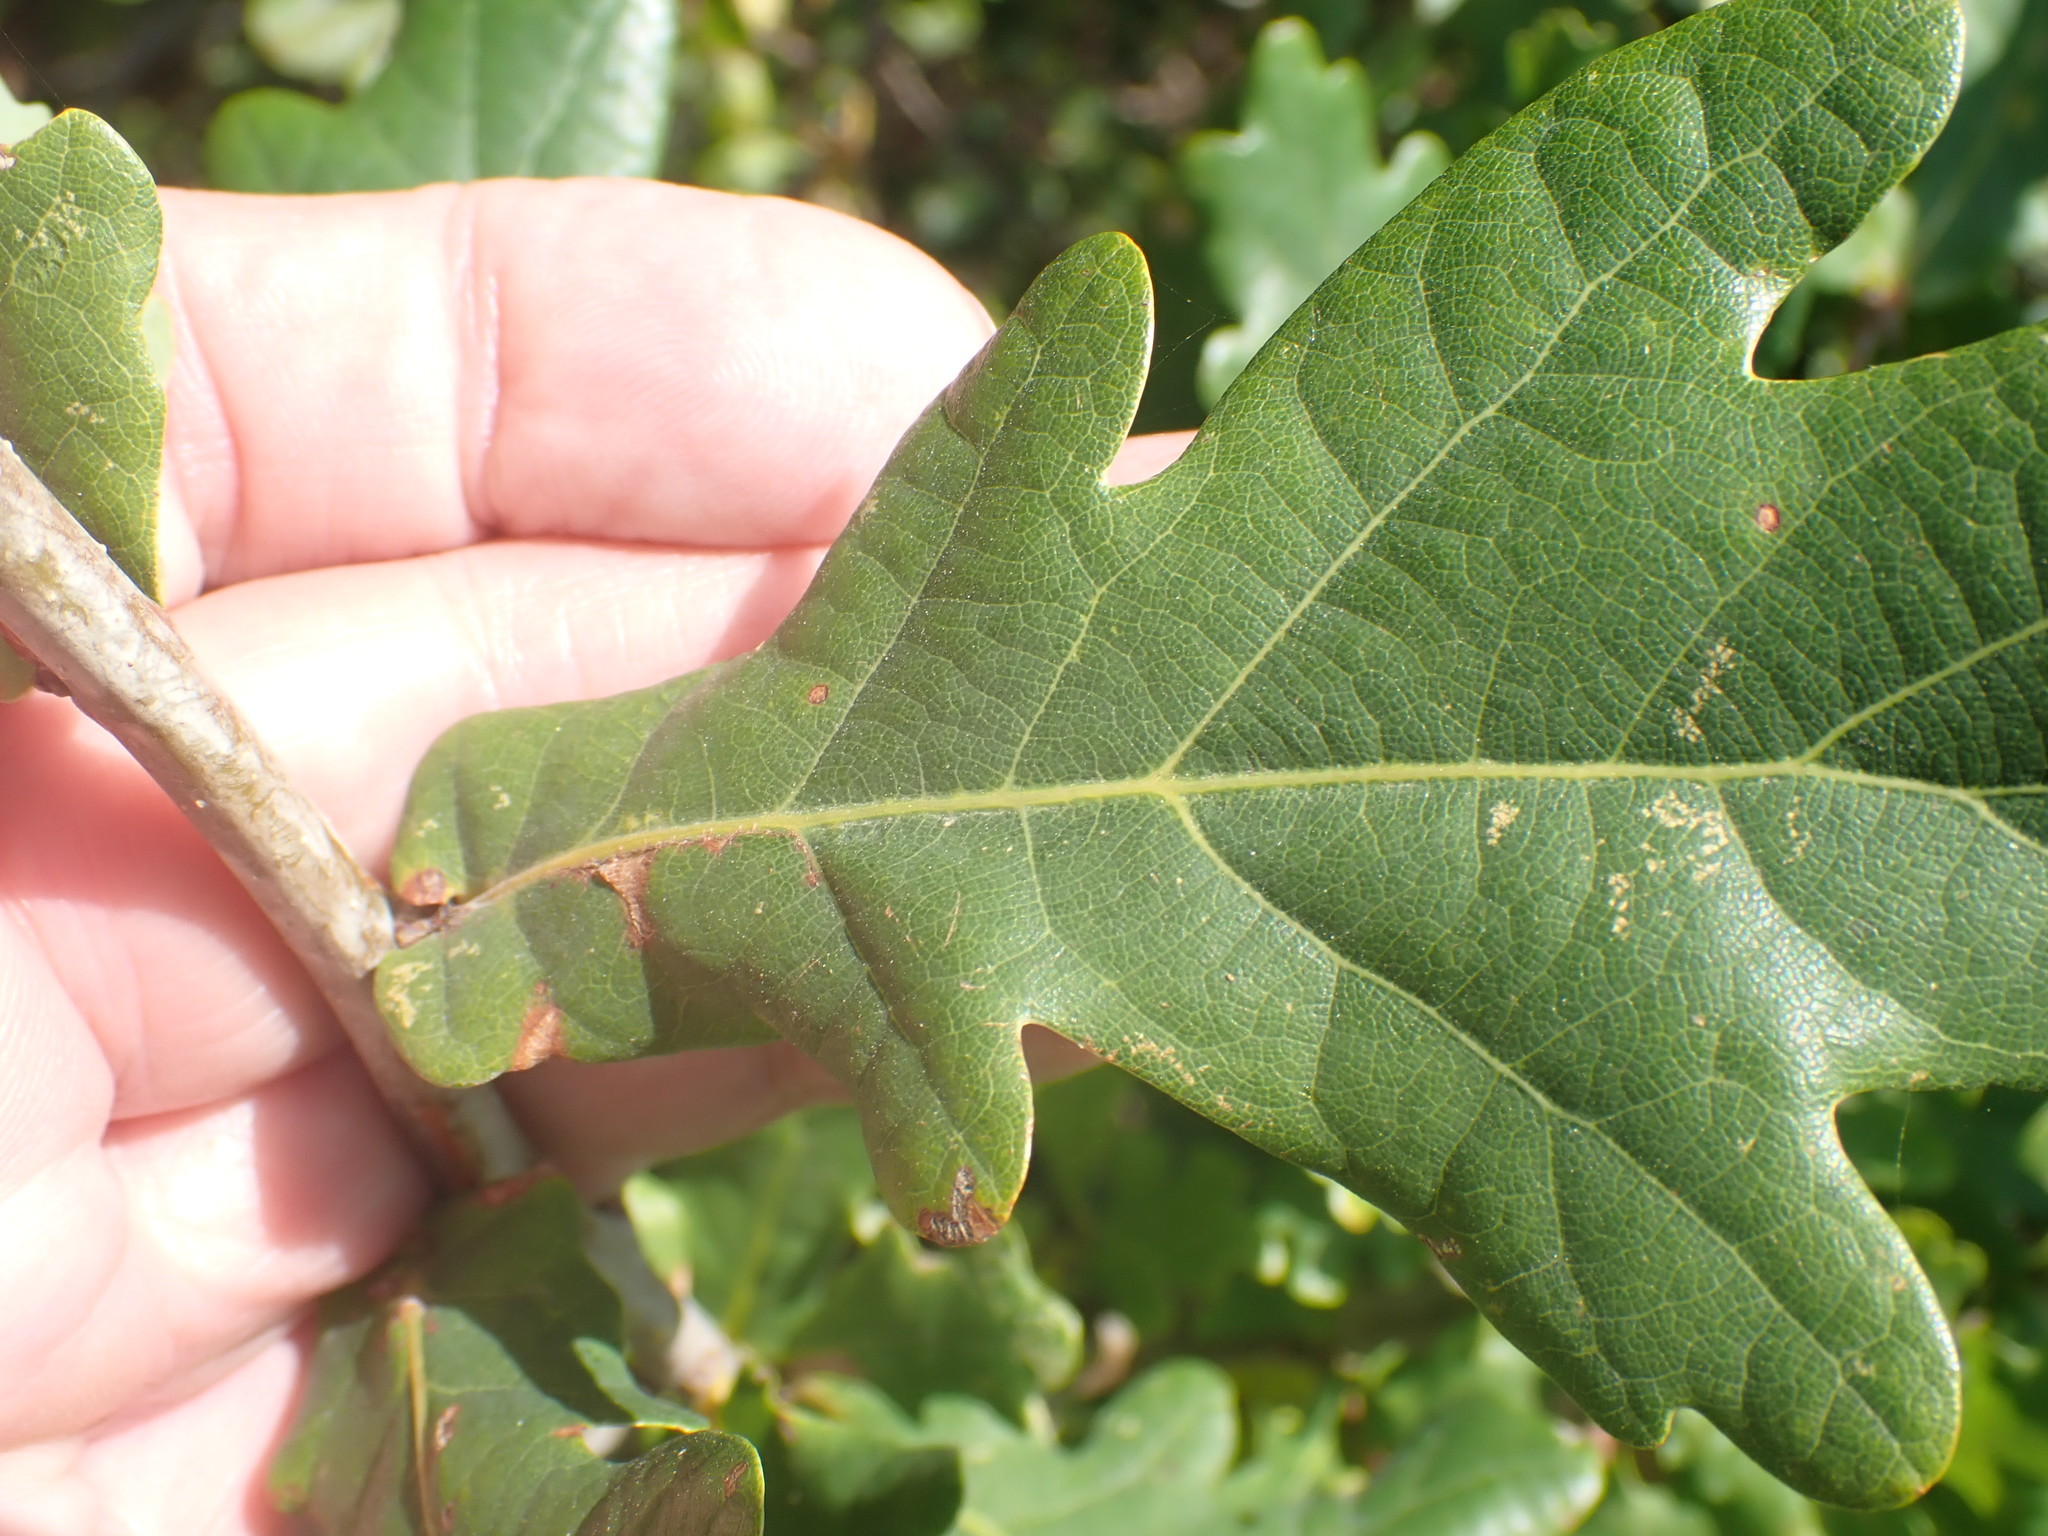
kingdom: Plantae
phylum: Tracheophyta
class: Magnoliopsida
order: Fagales
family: Fagaceae
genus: Quercus
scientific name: Quercus robur
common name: Pedunculate oak
